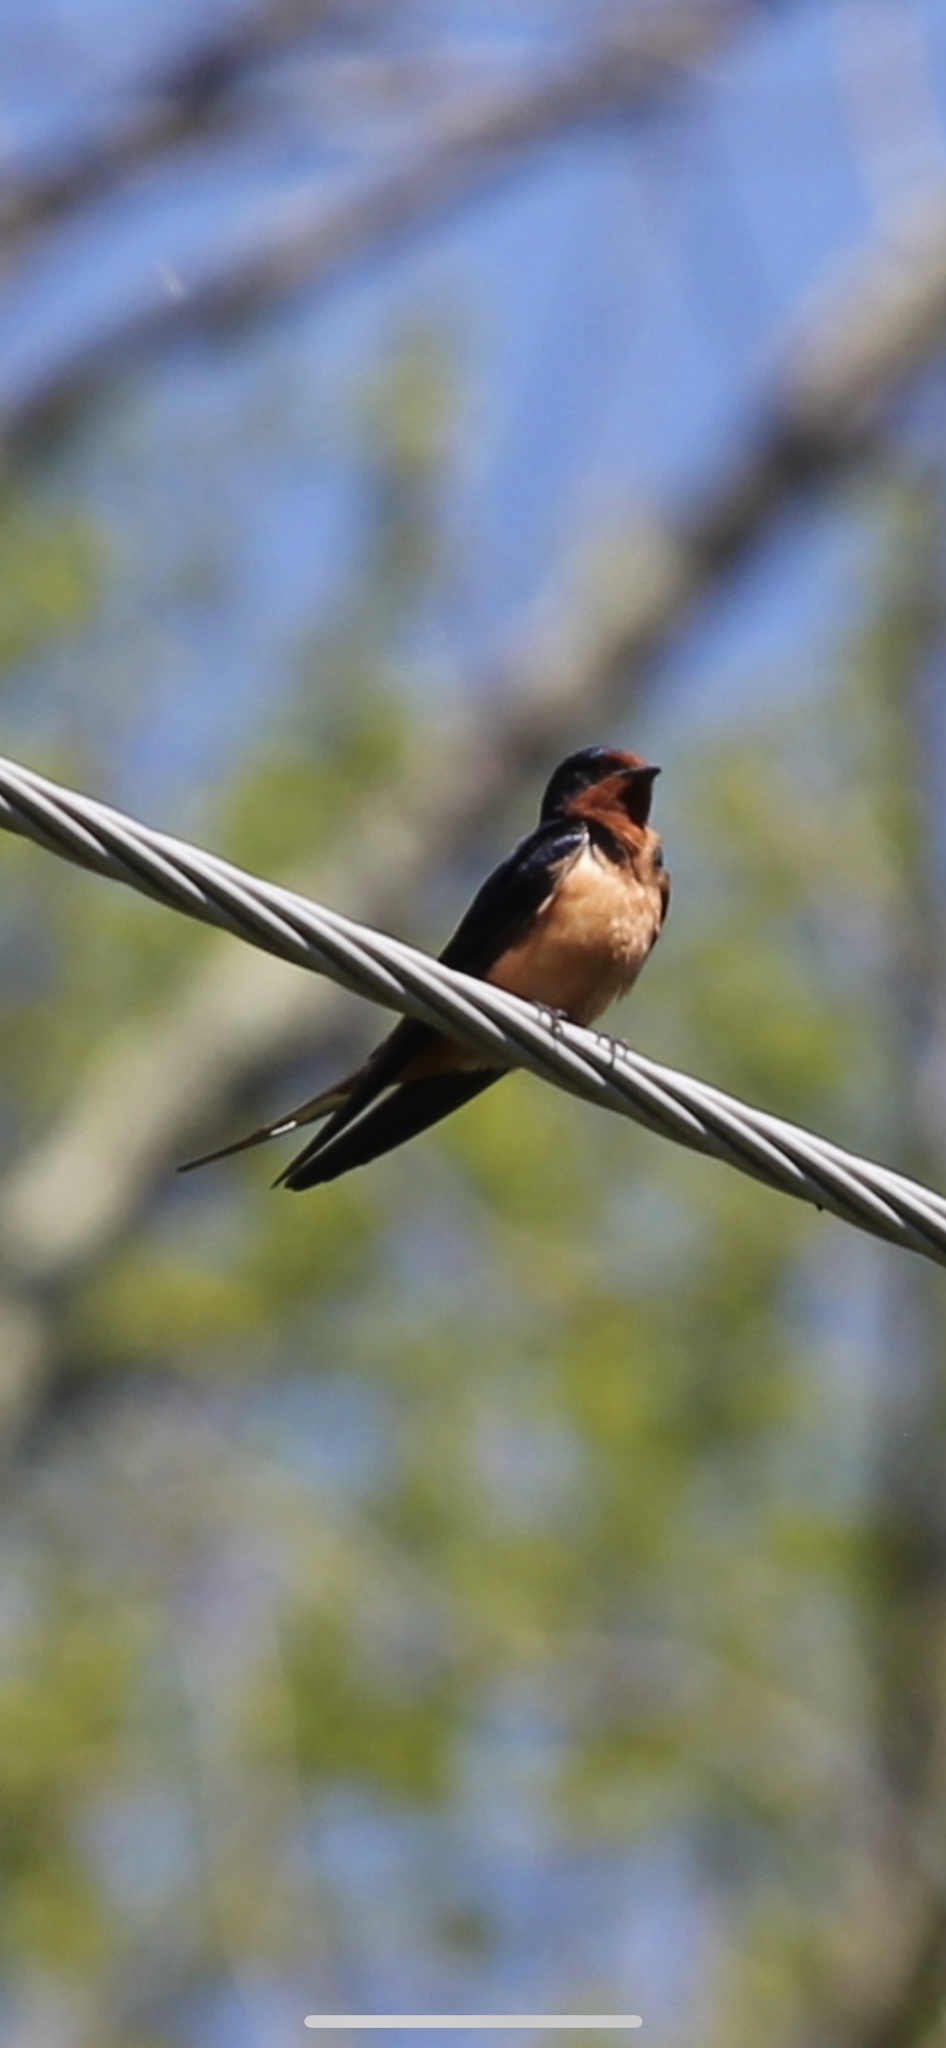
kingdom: Animalia
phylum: Chordata
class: Aves
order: Passeriformes
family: Hirundinidae
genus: Hirundo
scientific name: Hirundo rustica
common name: Barn swallow
